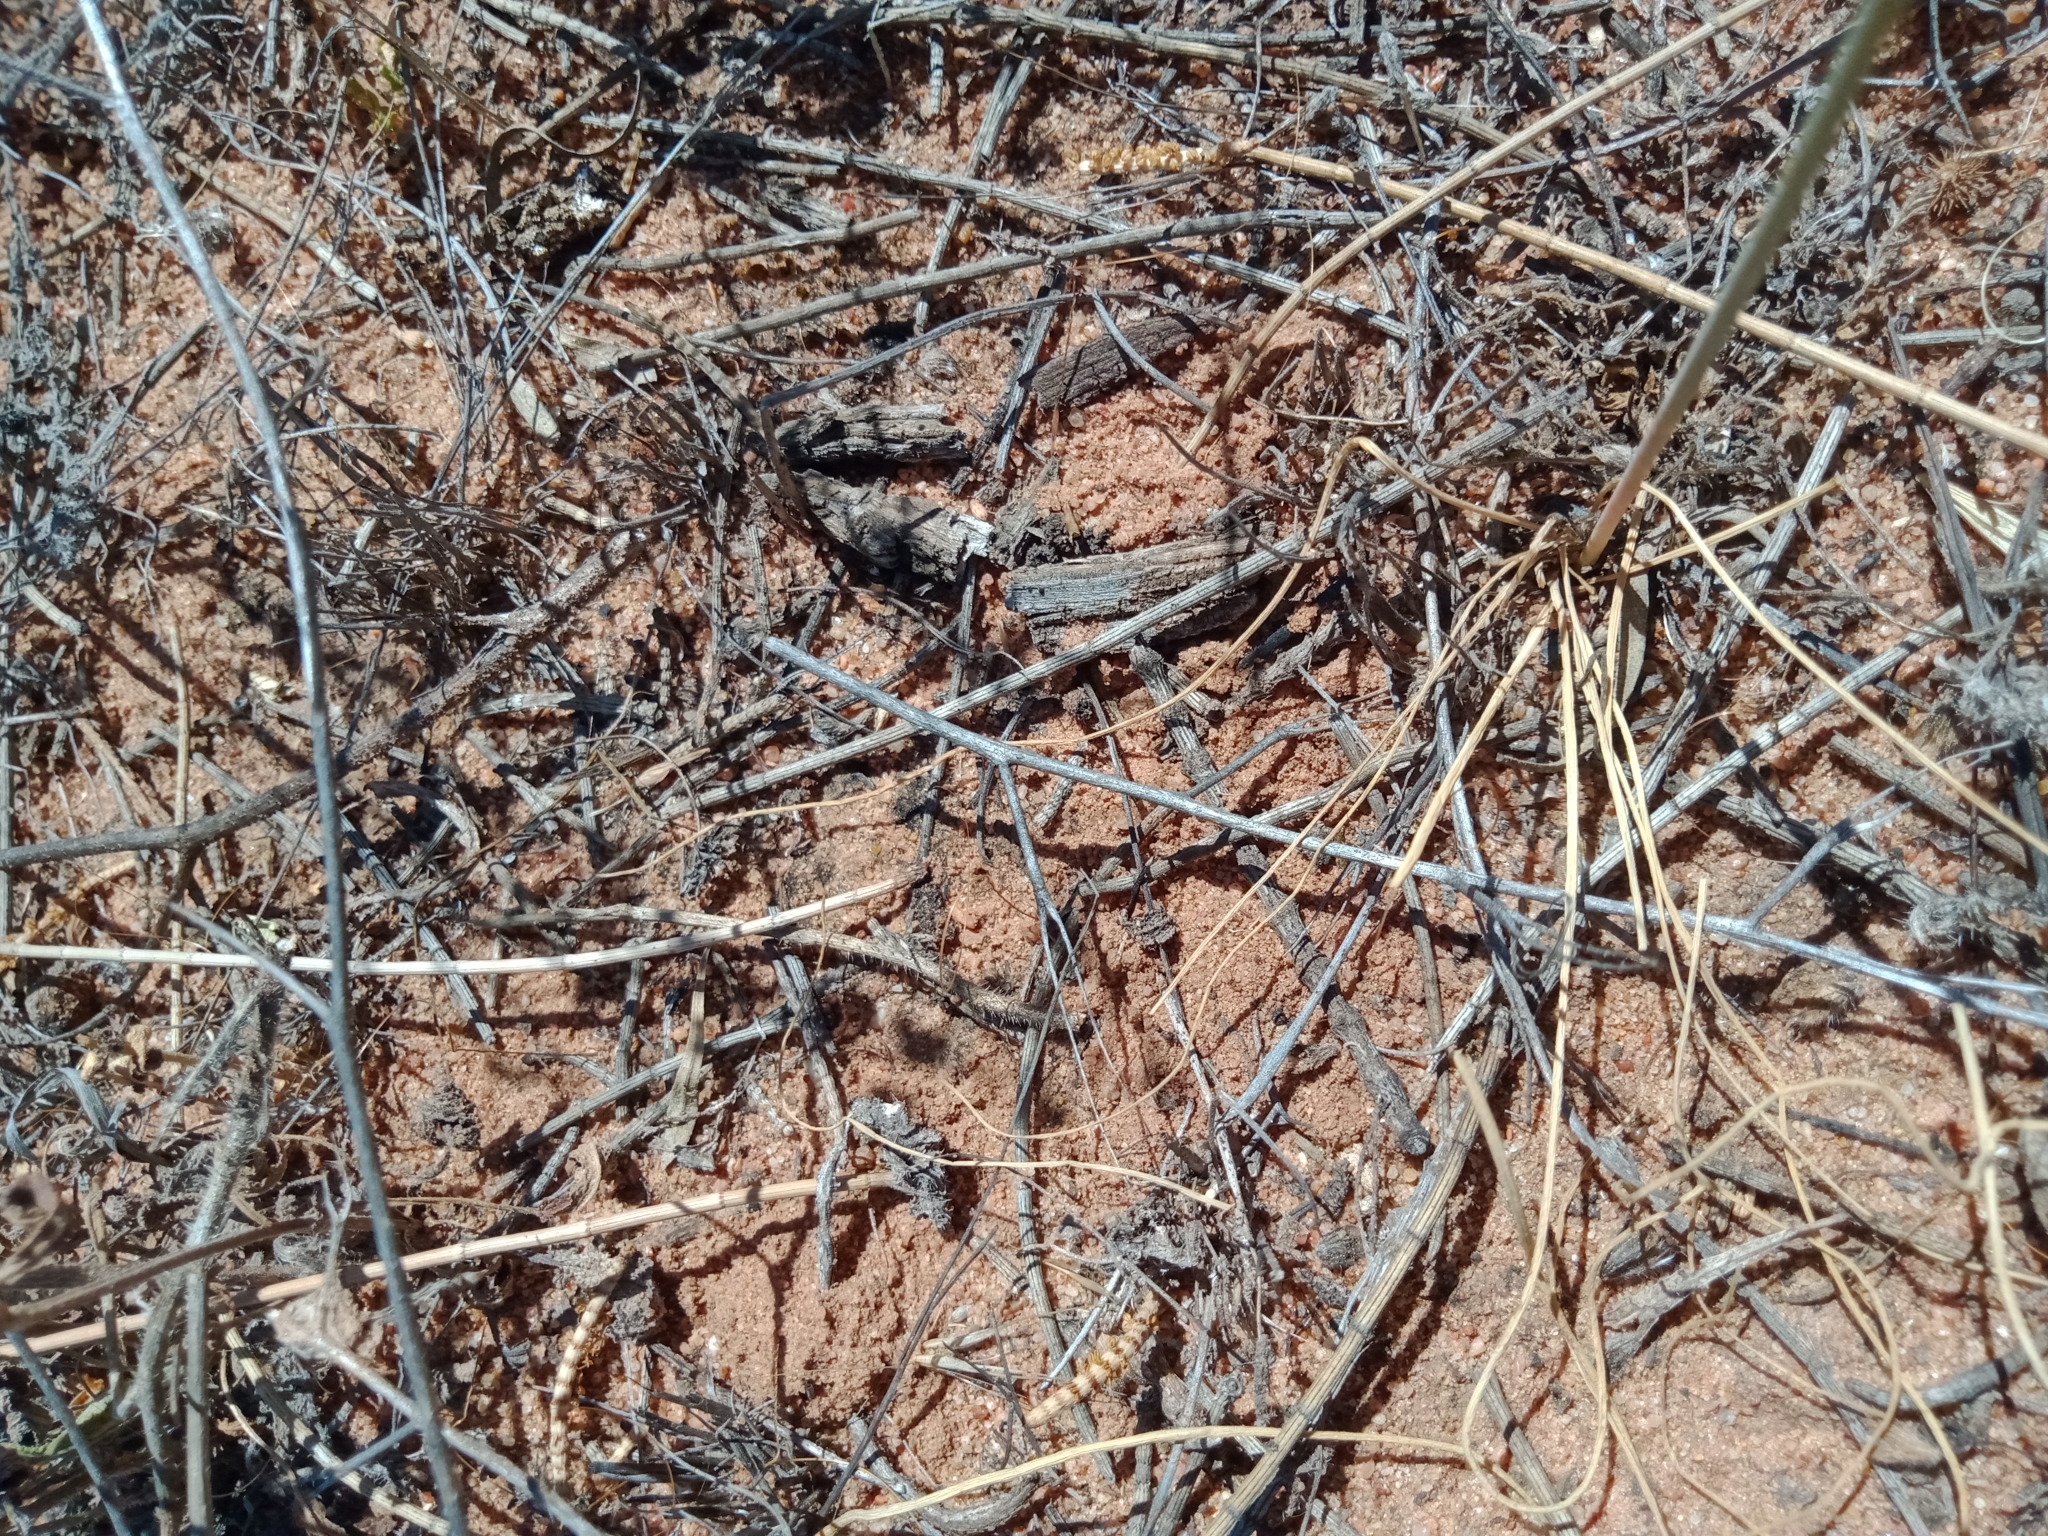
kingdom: Plantae
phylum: Tracheophyta
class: Liliopsida
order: Asparagales
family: Asparagaceae
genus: Thysanotus
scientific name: Thysanotus baueri
